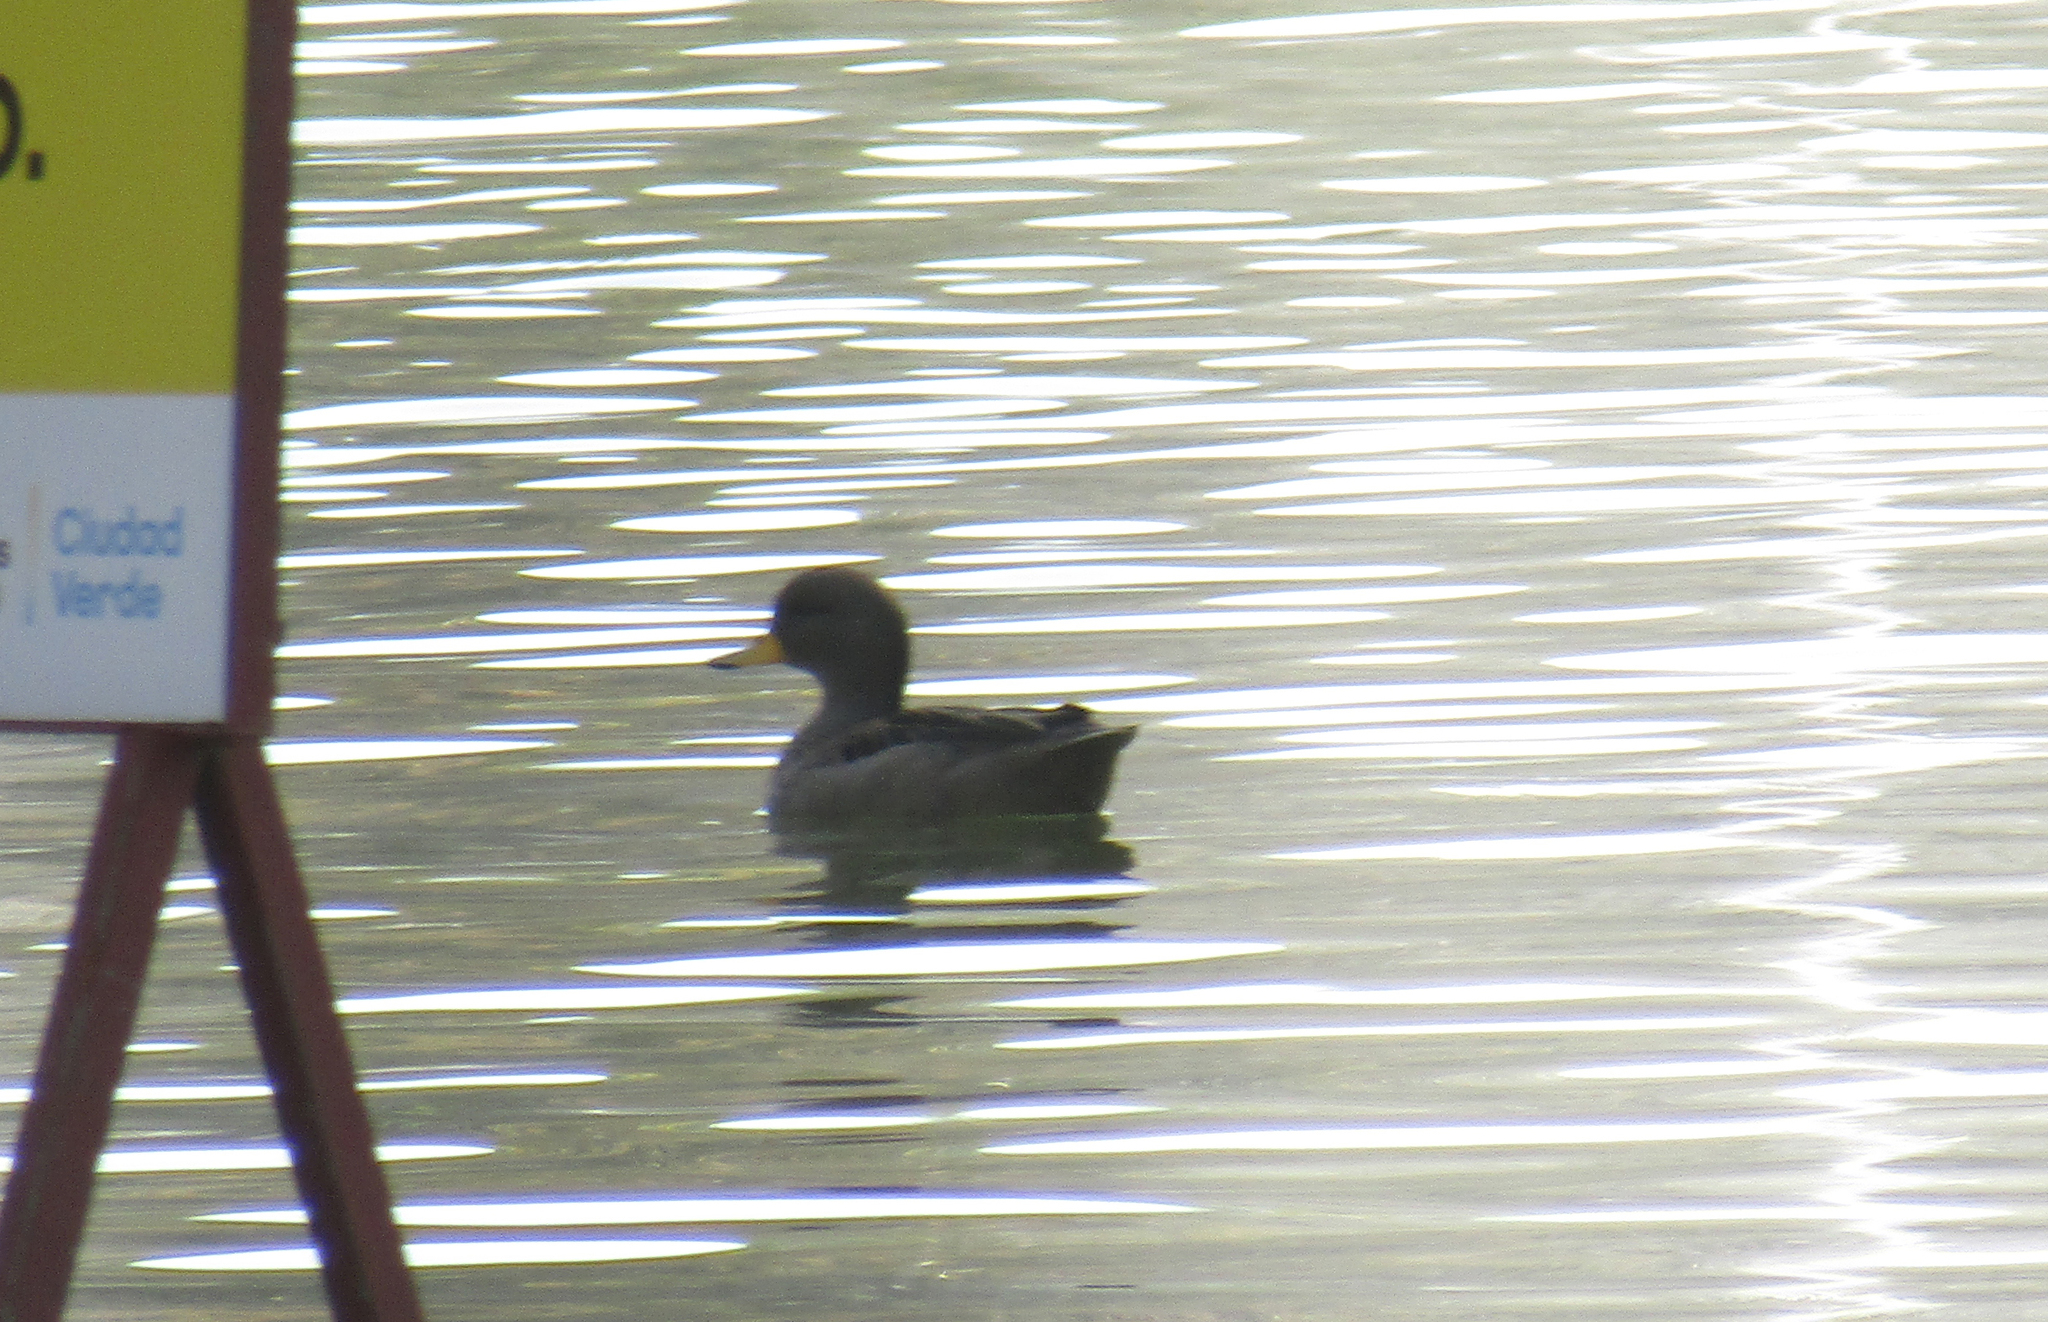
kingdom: Animalia
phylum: Chordata
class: Aves
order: Anseriformes
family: Anatidae
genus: Anas
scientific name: Anas flavirostris
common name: Yellow-billed teal
